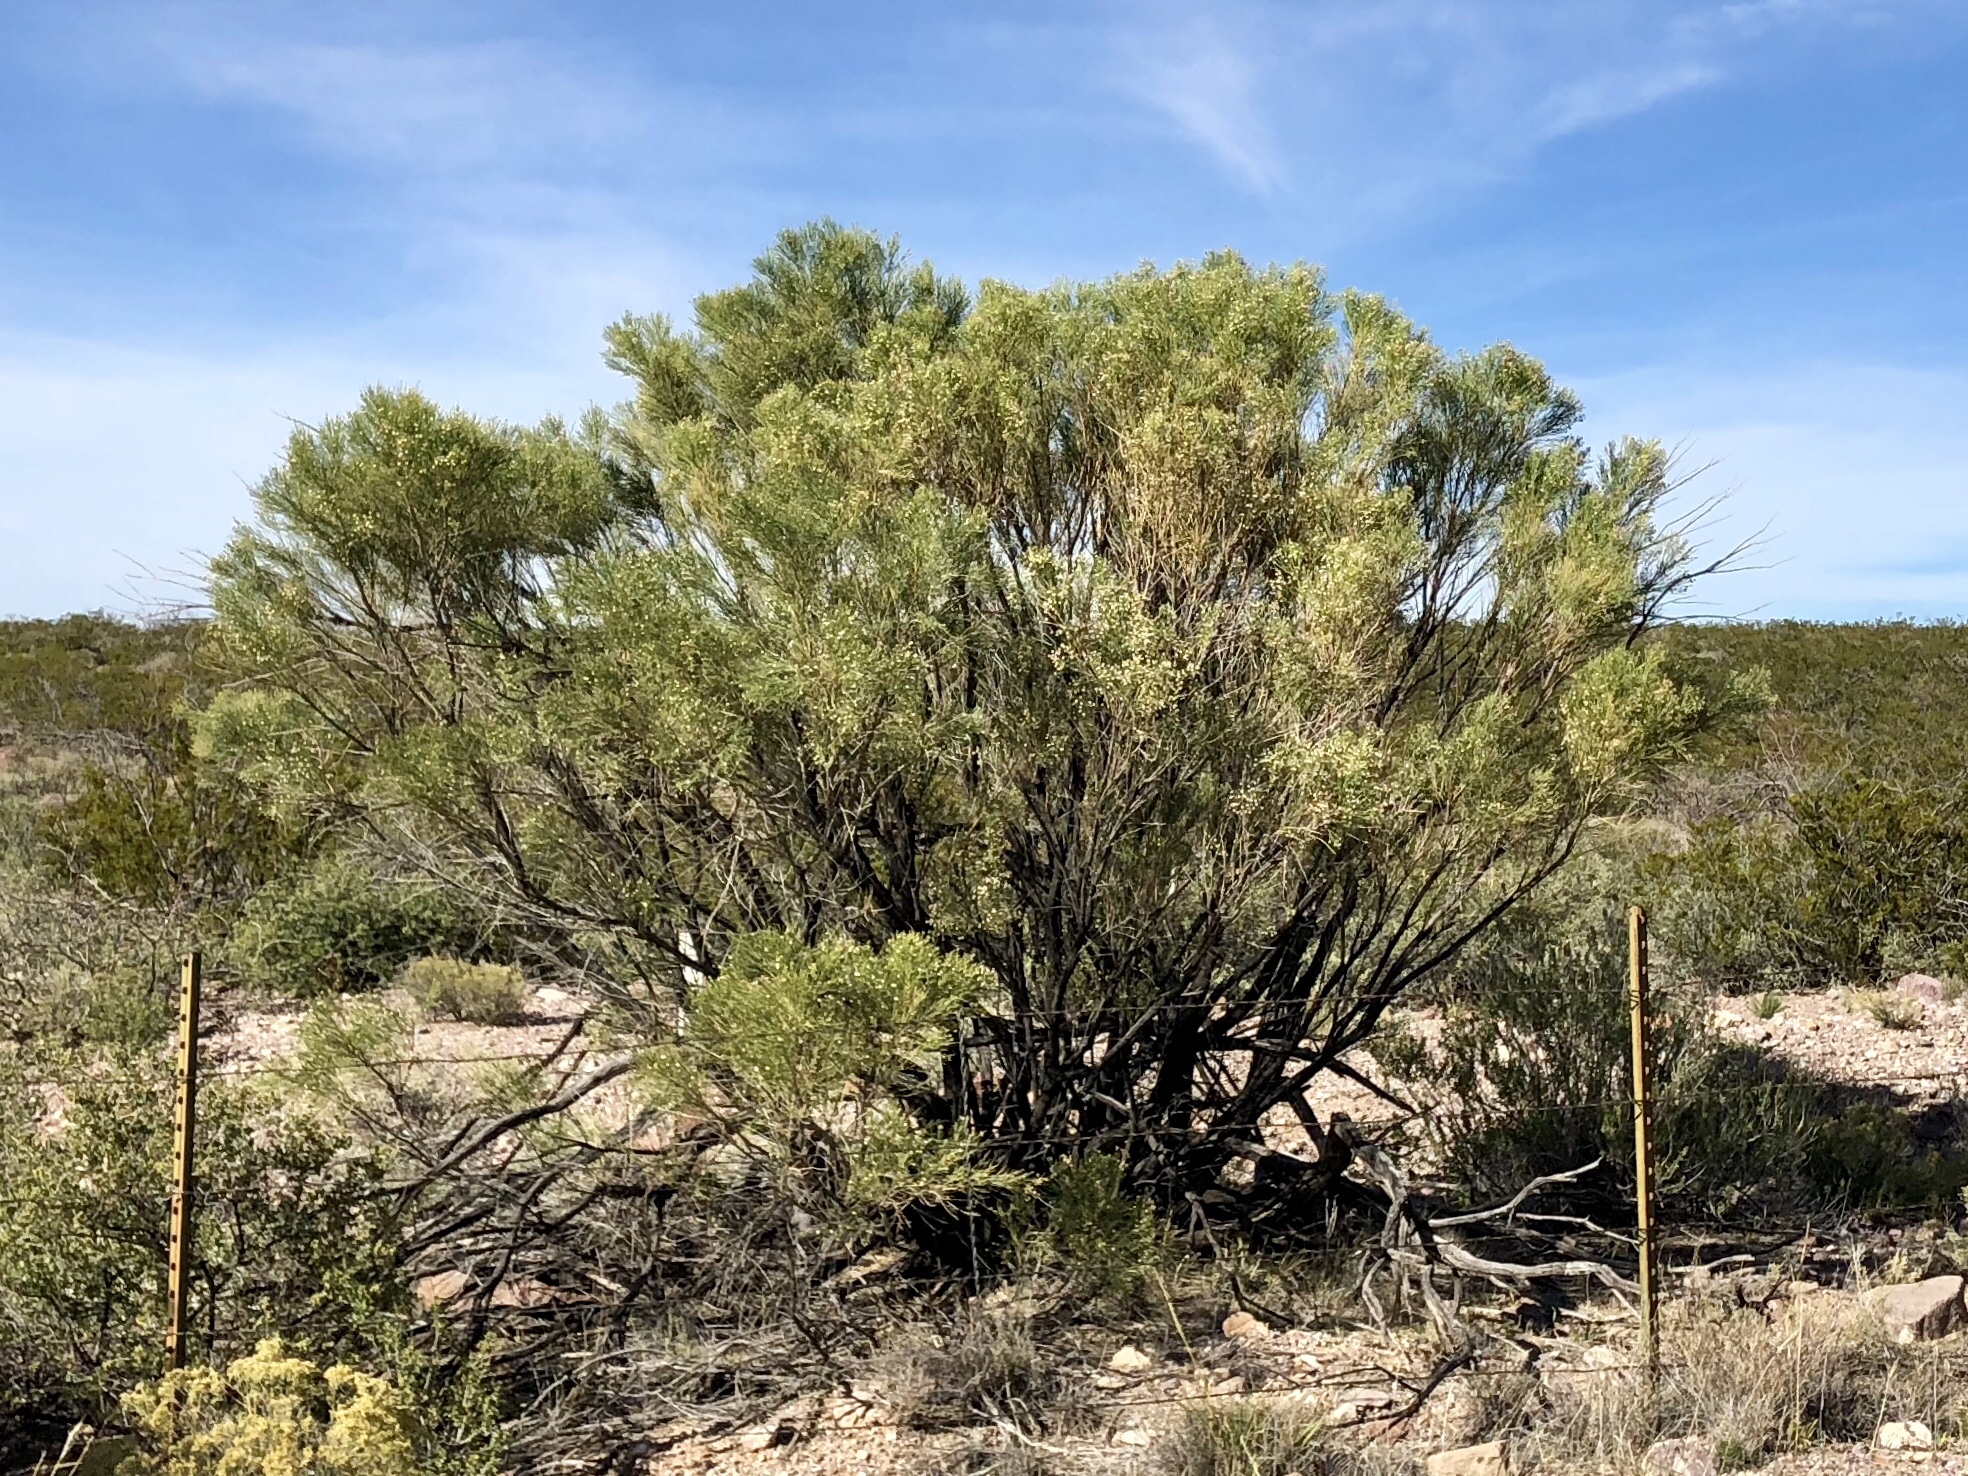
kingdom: Plantae
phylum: Tracheophyta
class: Magnoliopsida
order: Asterales
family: Asteraceae
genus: Baccharis
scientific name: Baccharis sarothroides
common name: Desert-broom
